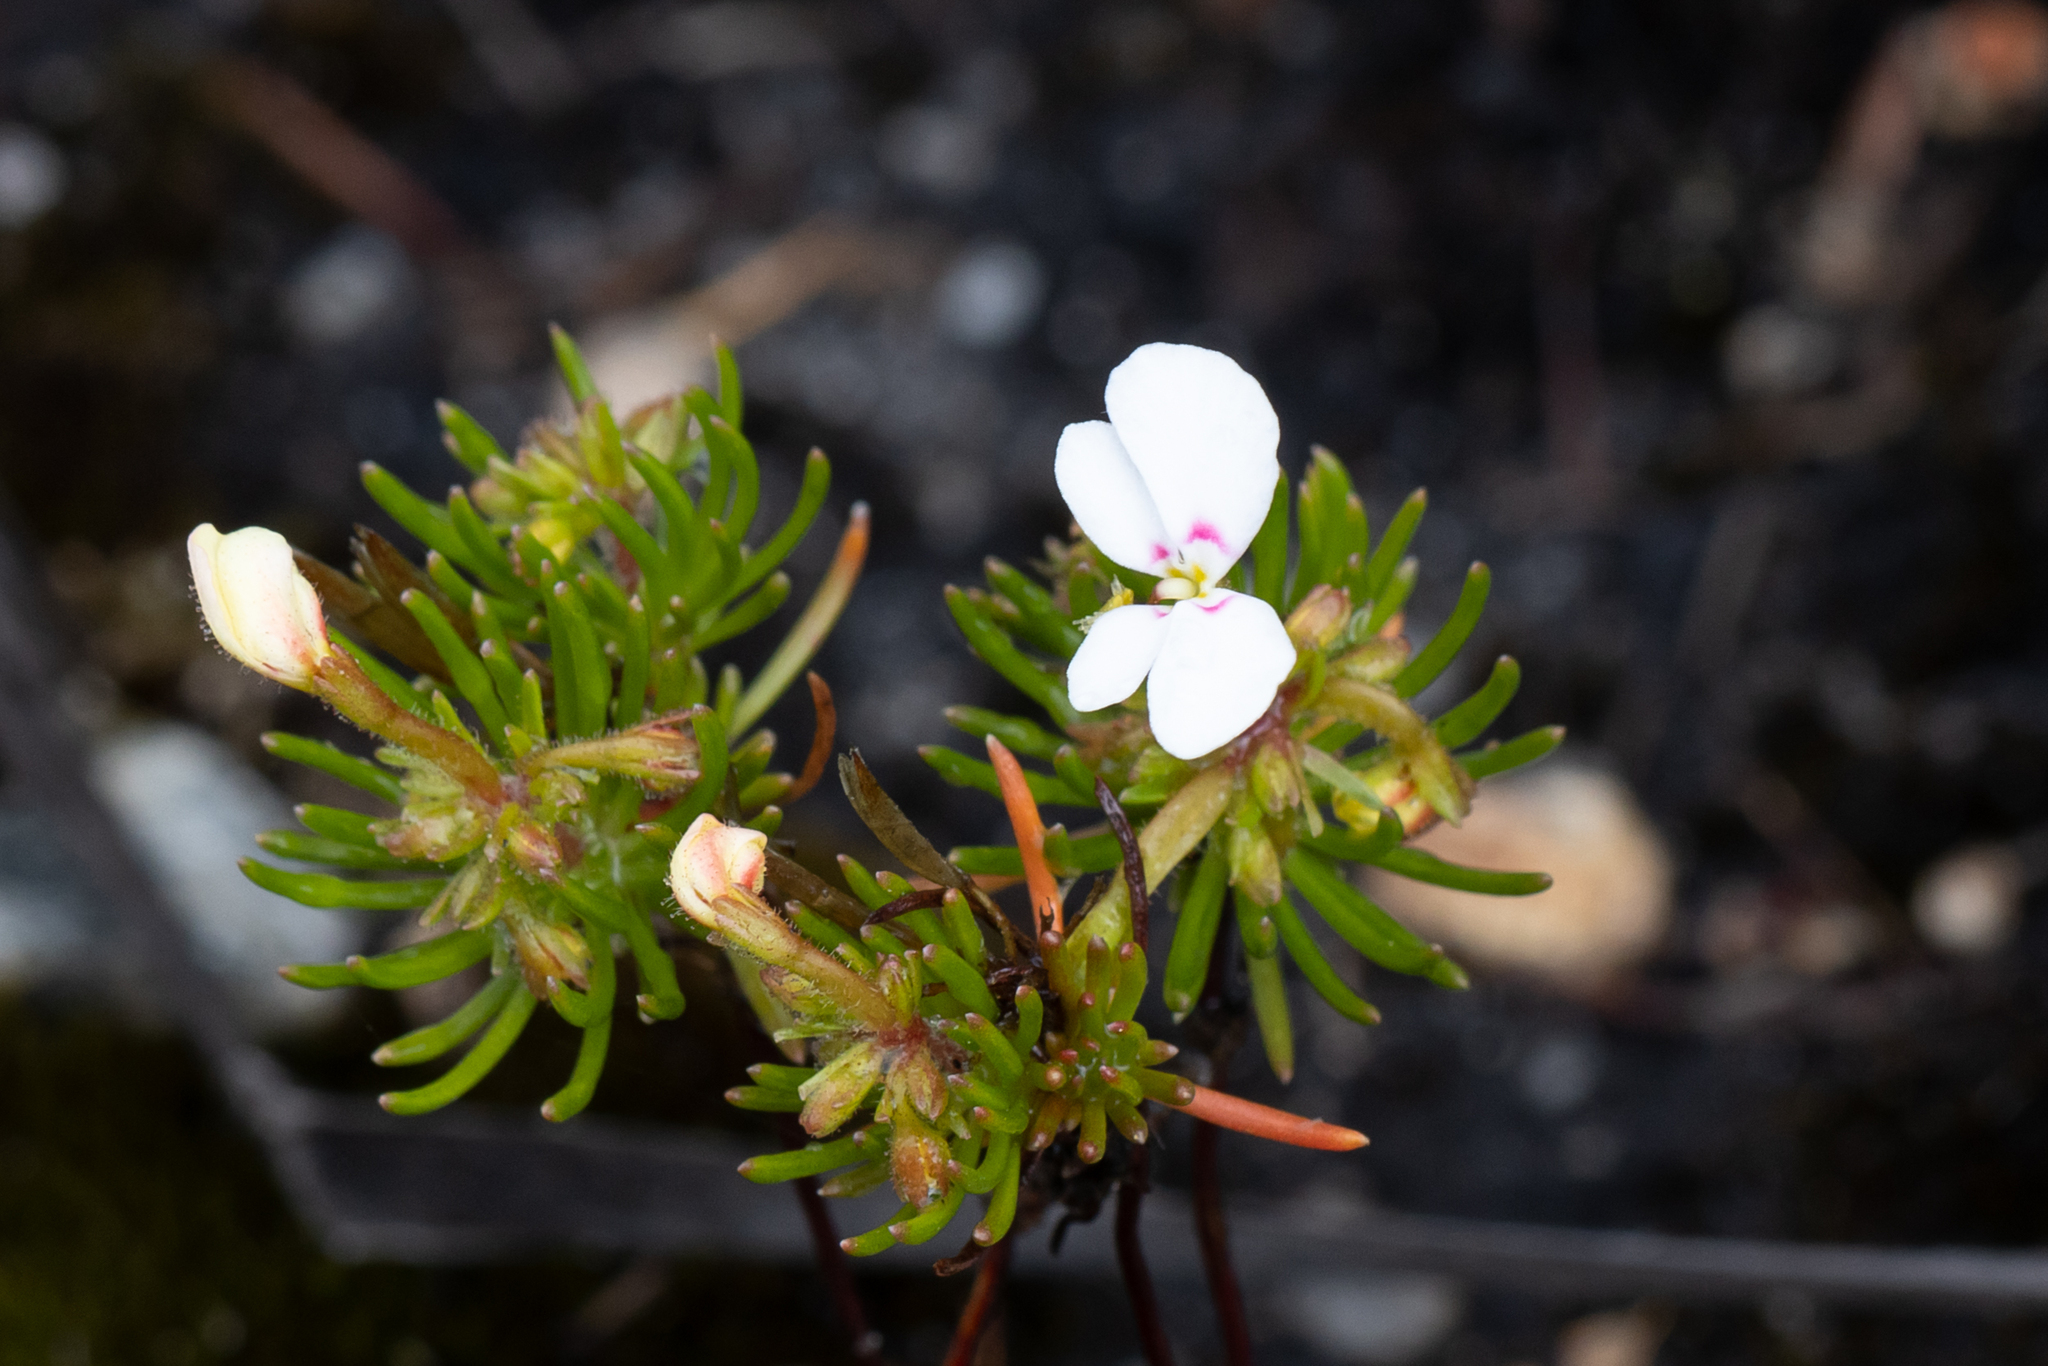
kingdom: Plantae
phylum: Tracheophyta
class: Magnoliopsida
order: Asterales
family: Stylidiaceae
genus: Stylidium
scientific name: Stylidium breviscapum
